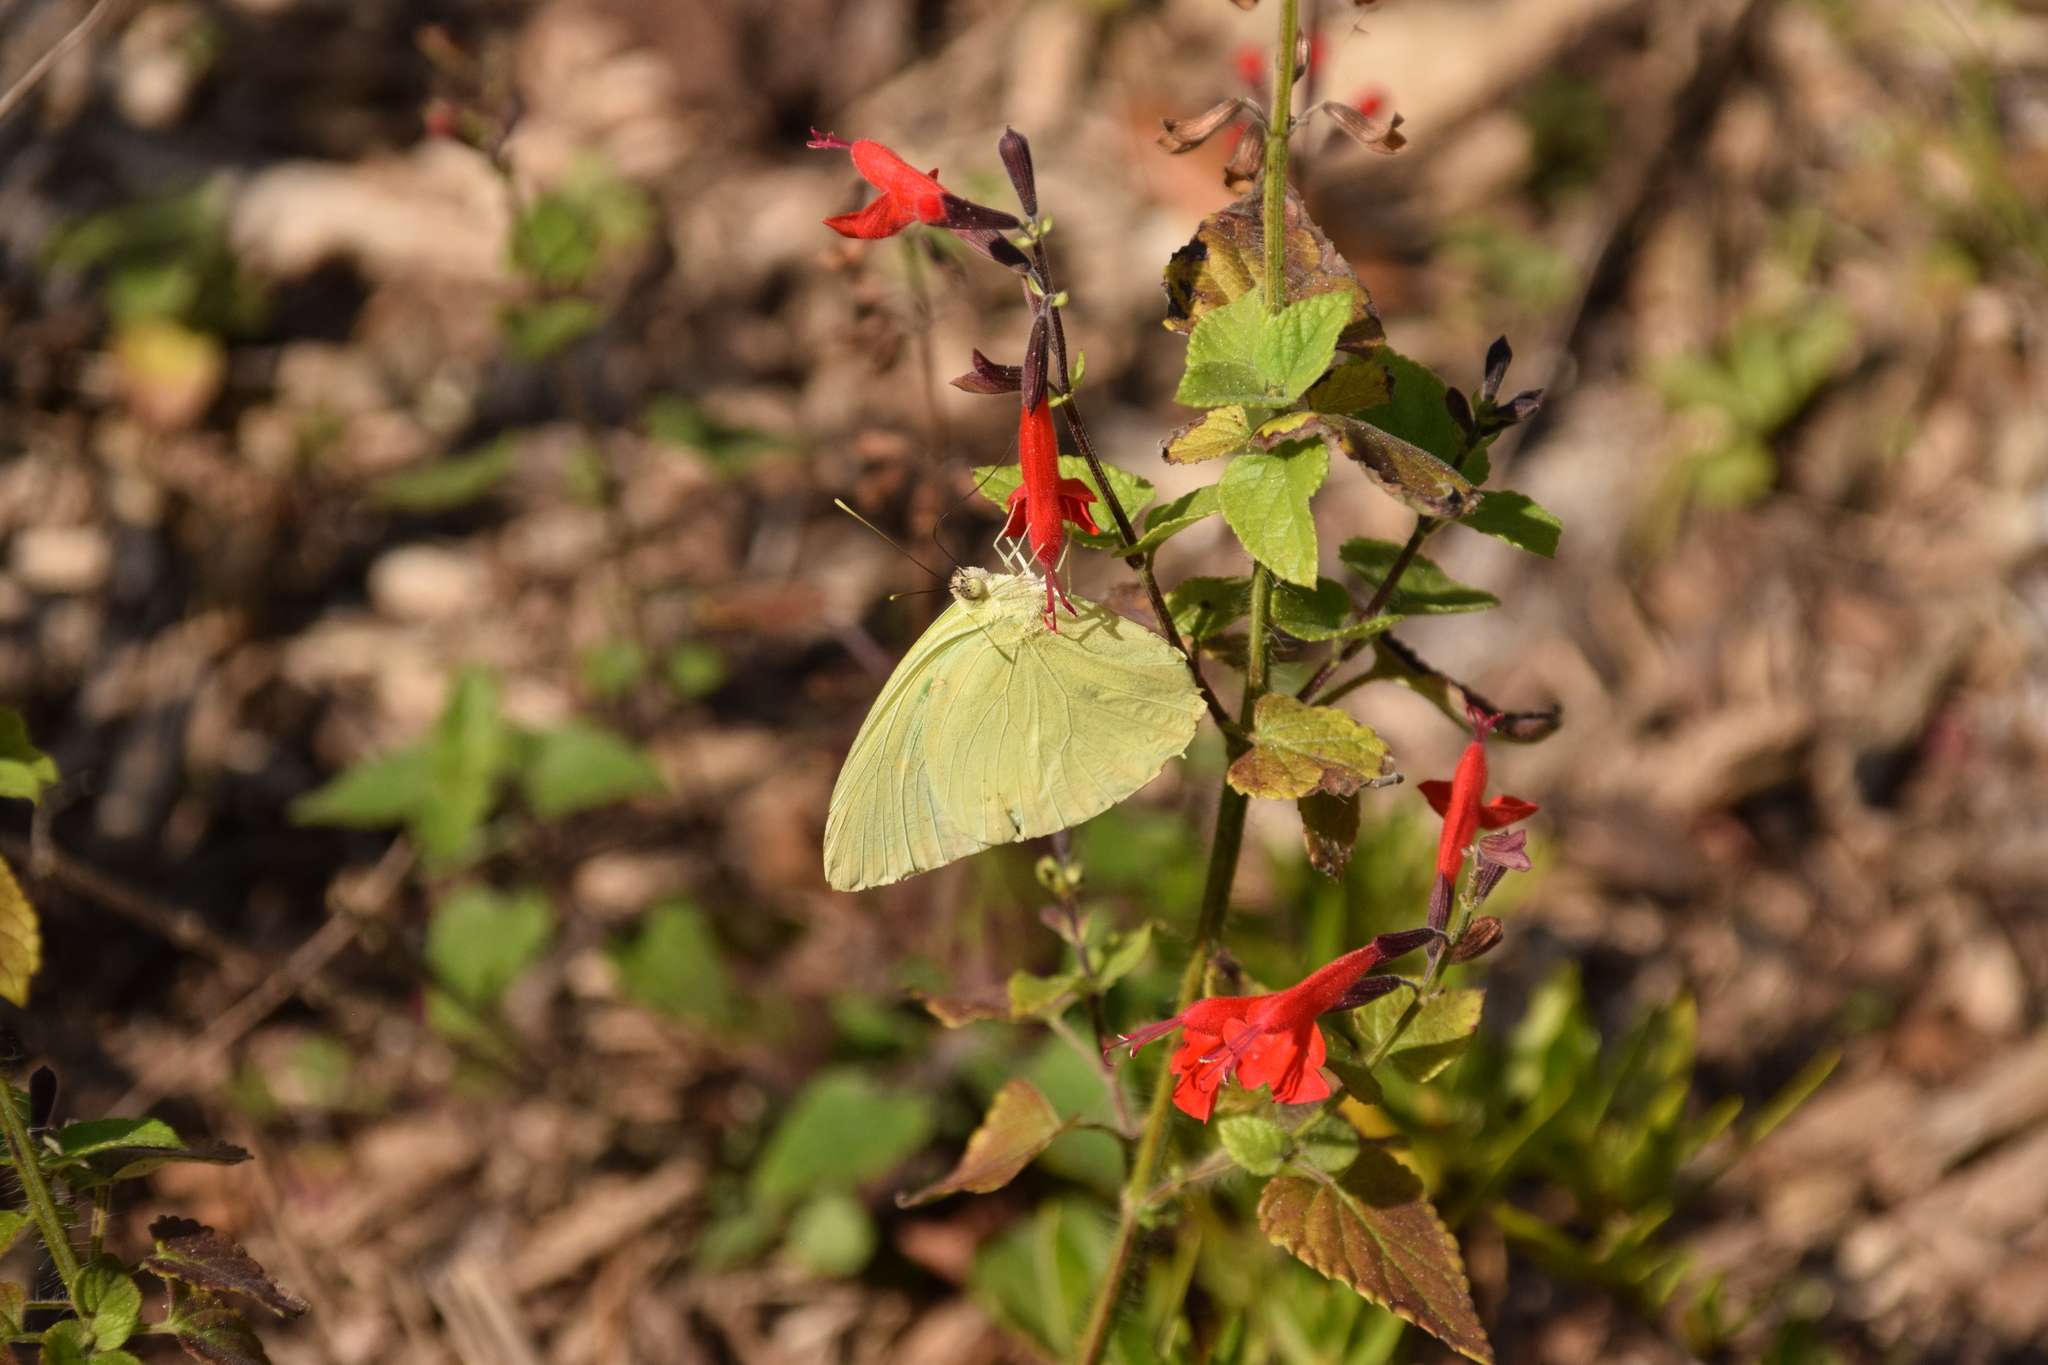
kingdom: Animalia
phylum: Arthropoda
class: Insecta
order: Lepidoptera
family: Pieridae
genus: Aphrissa
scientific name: Aphrissa statira
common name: Statira sulphur
